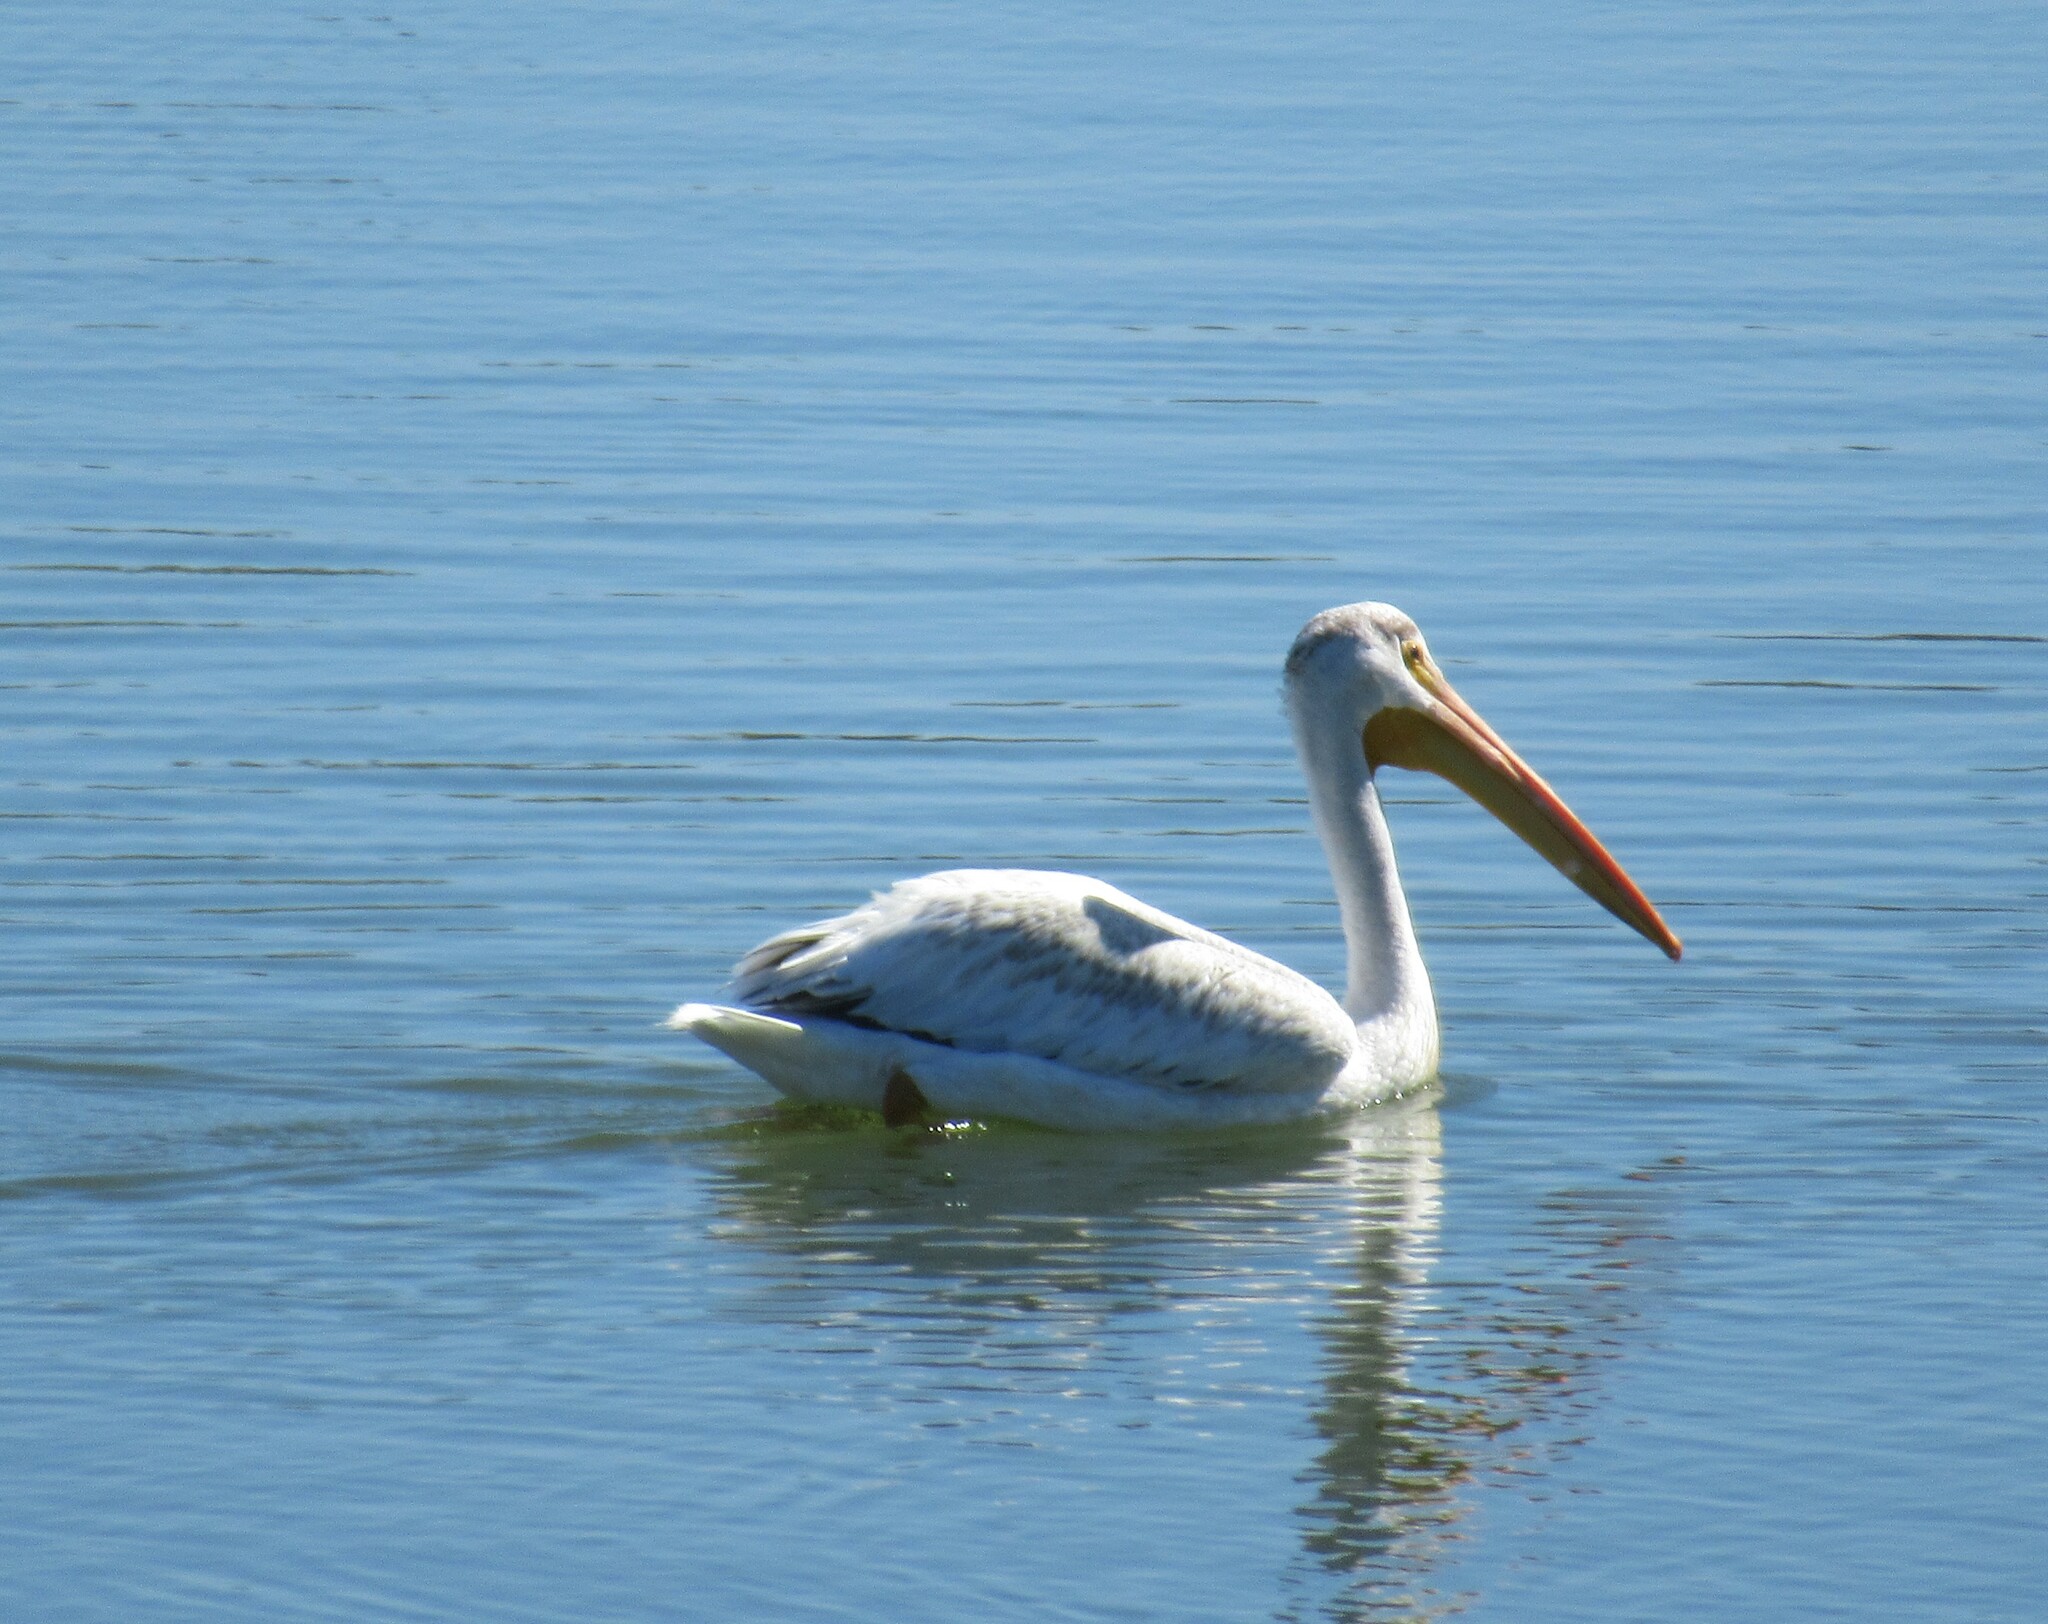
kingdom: Animalia
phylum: Chordata
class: Aves
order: Pelecaniformes
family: Pelecanidae
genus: Pelecanus
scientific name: Pelecanus erythrorhynchos
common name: American white pelican
